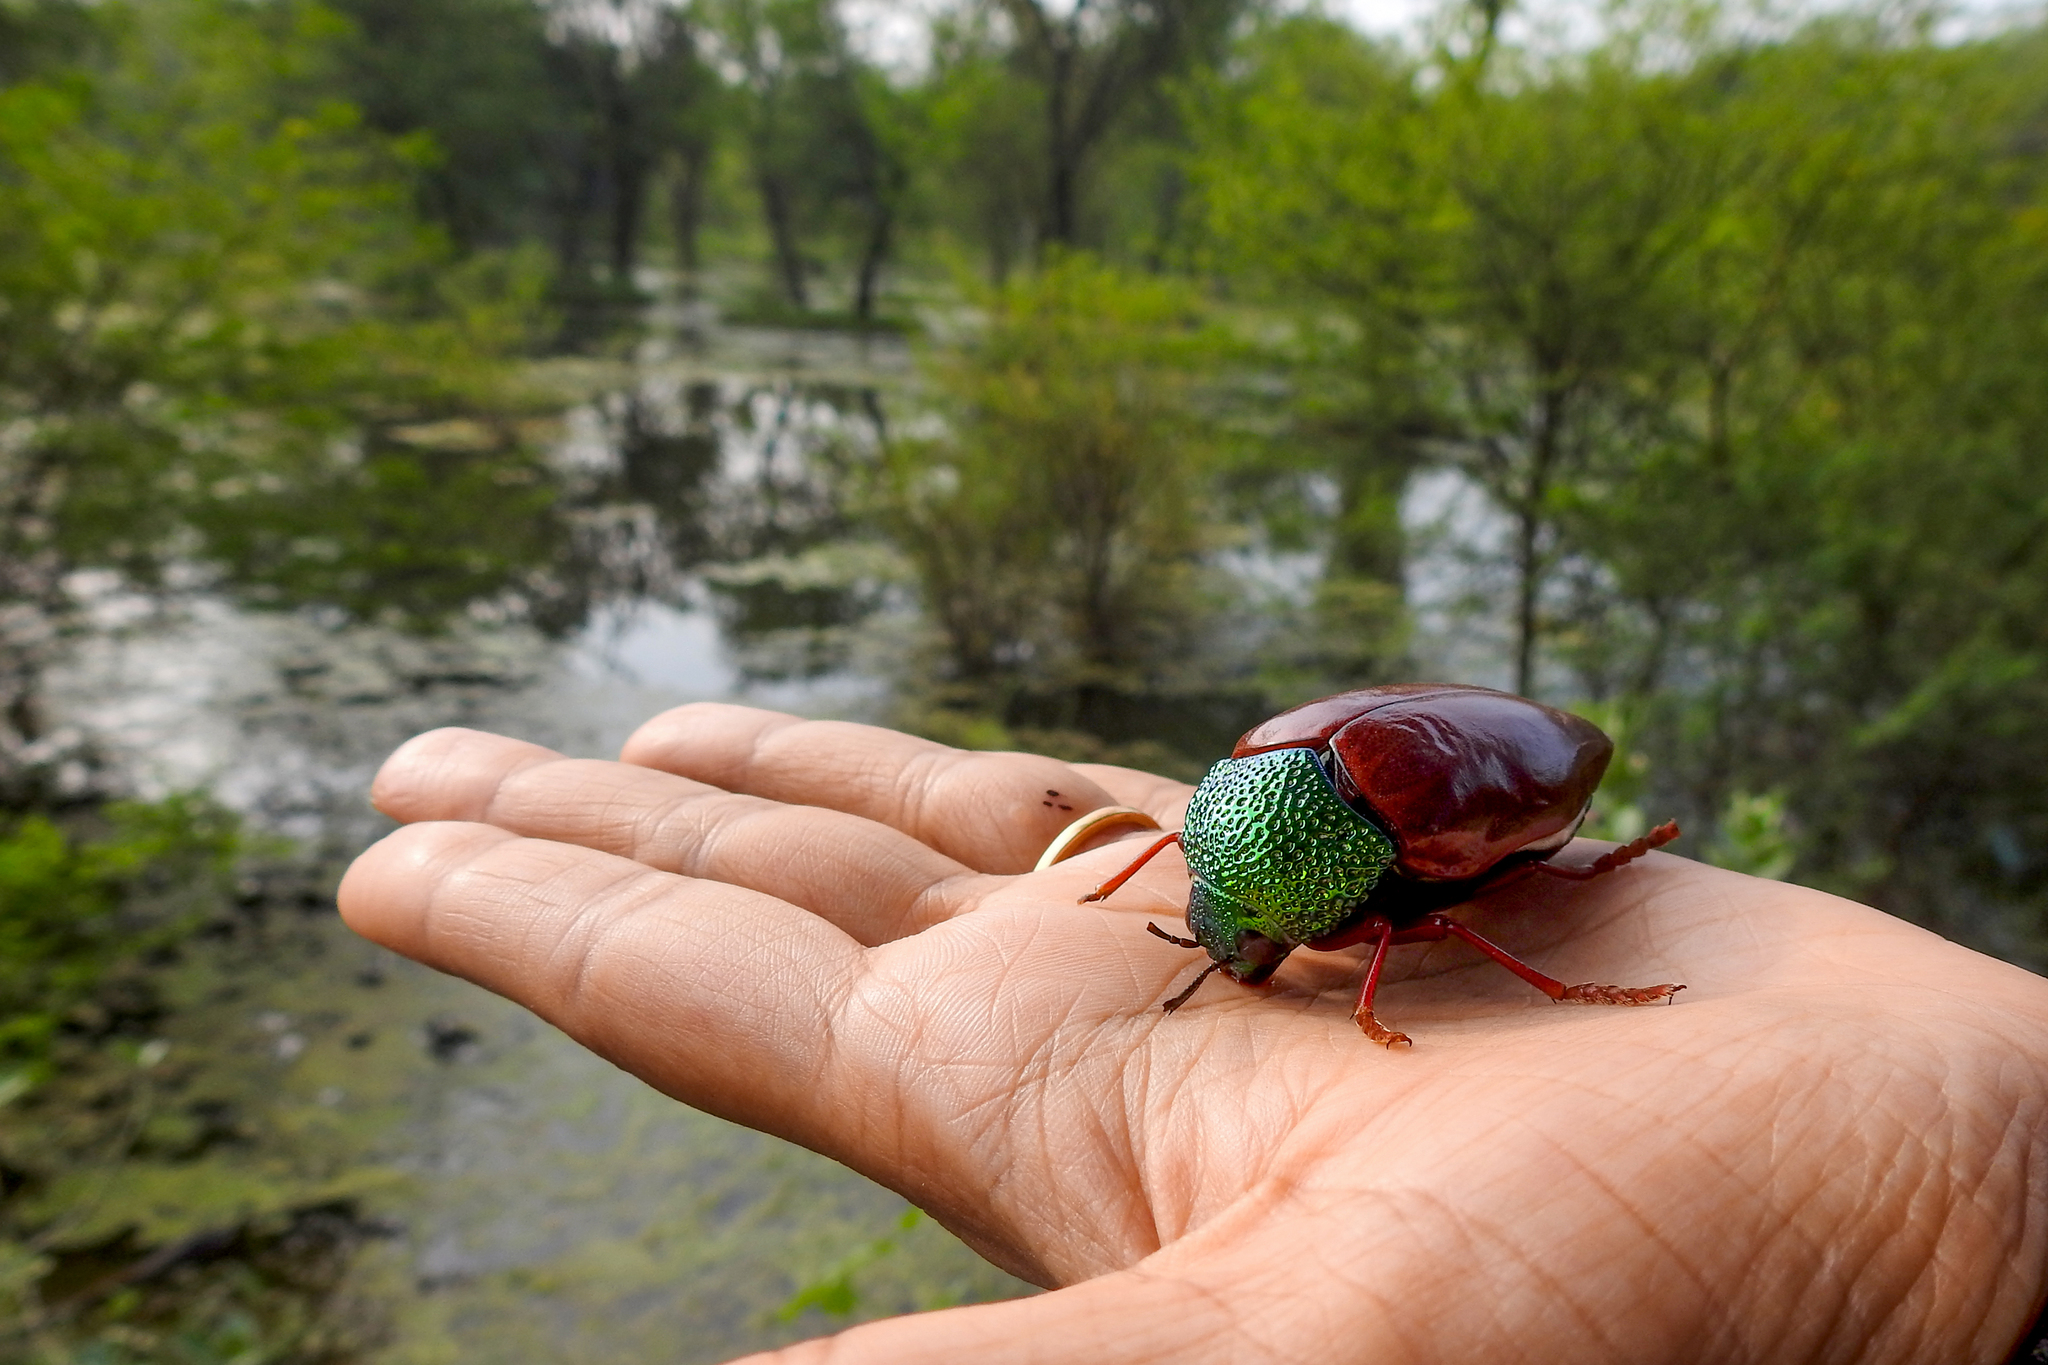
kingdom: Animalia
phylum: Arthropoda
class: Insecta
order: Coleoptera
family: Buprestidae
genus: Sternocera
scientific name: Sternocera chrysis
